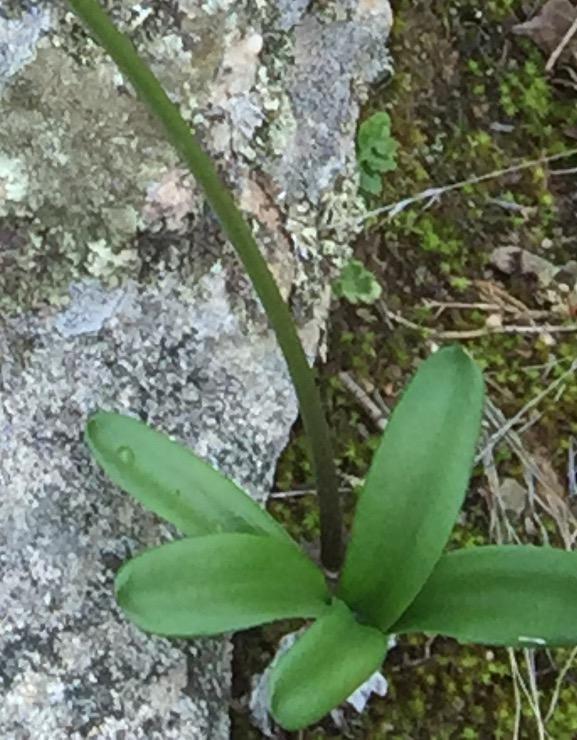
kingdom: Plantae
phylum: Tracheophyta
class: Liliopsida
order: Asparagales
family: Amaryllidaceae
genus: Nerine
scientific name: Nerine humilis
